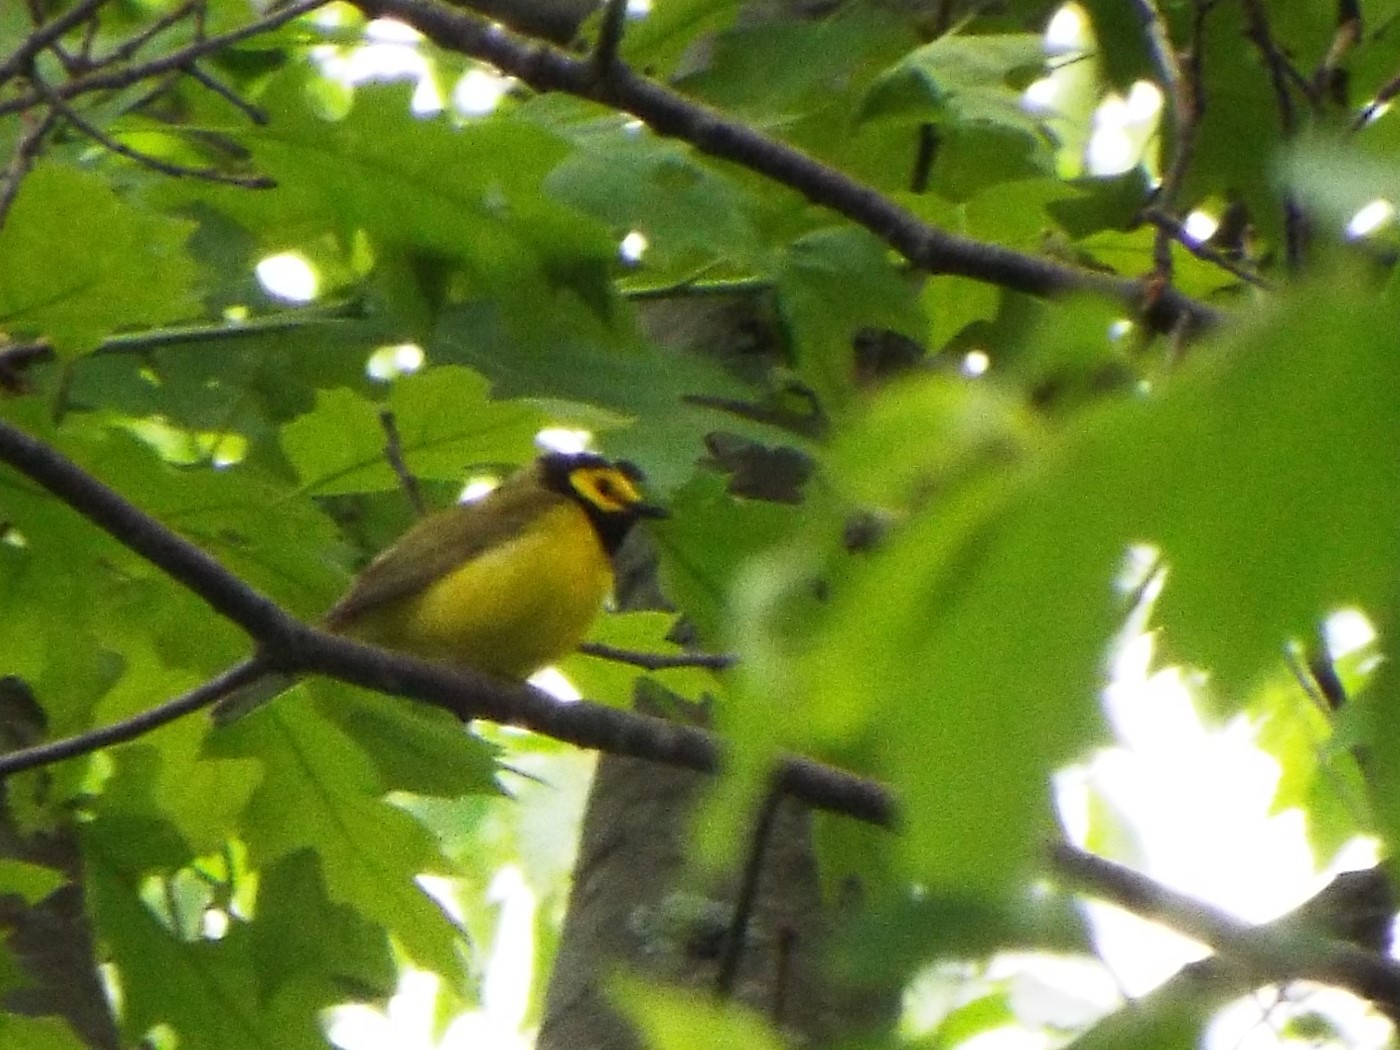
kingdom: Animalia
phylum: Chordata
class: Aves
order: Passeriformes
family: Parulidae
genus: Setophaga
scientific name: Setophaga citrina
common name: Hooded warbler
